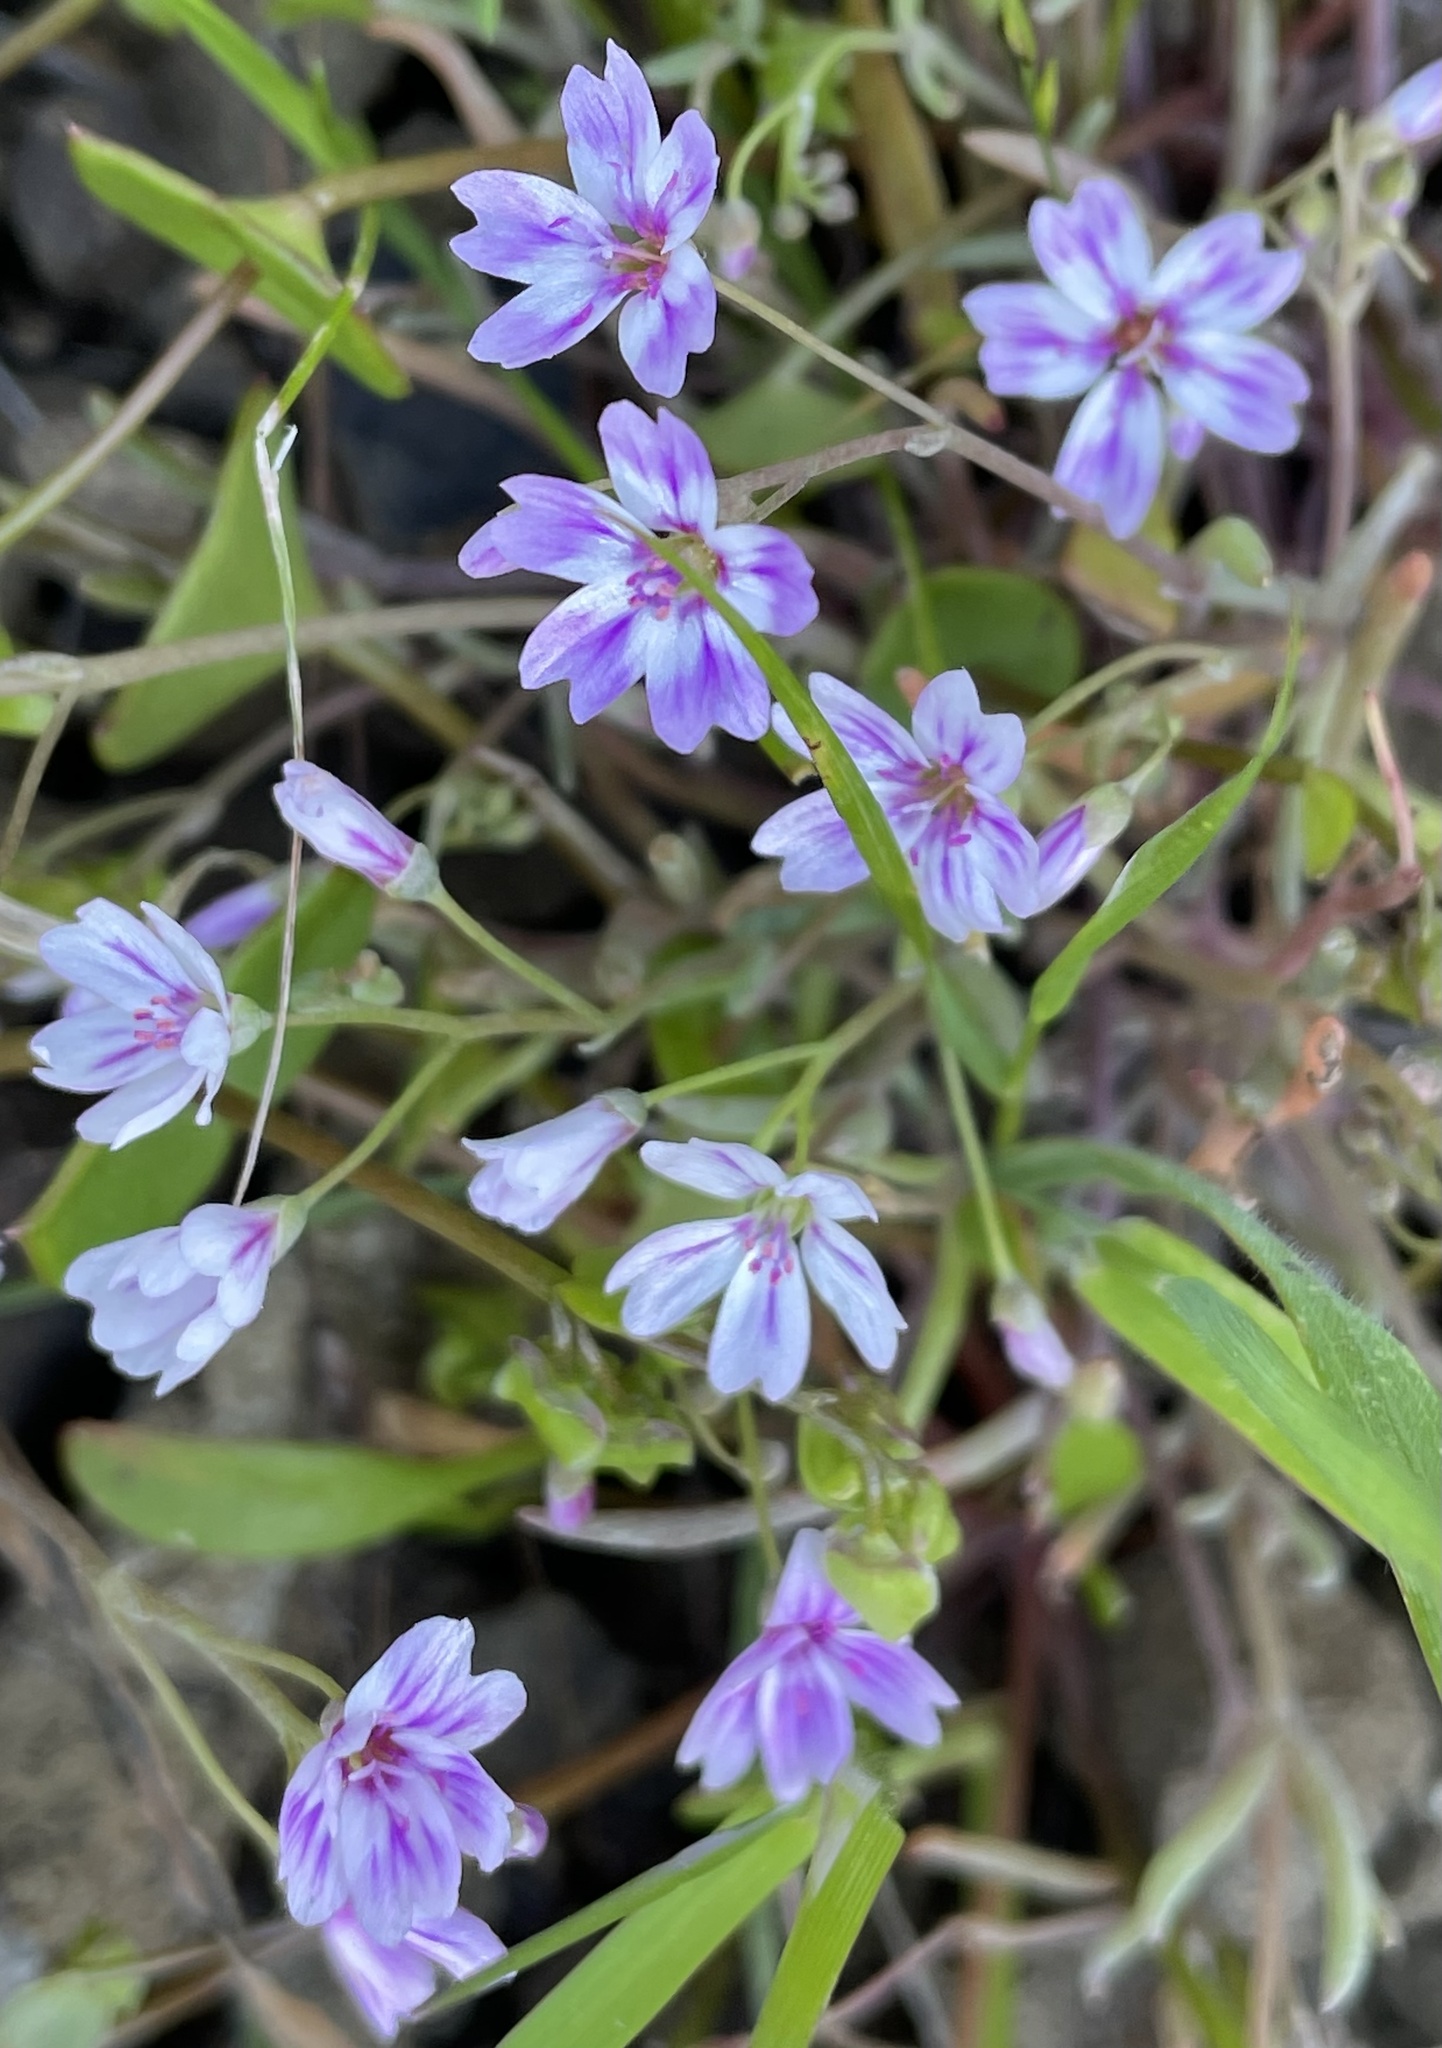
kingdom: Plantae
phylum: Tracheophyta
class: Magnoliopsida
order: Caryophyllales
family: Montiaceae
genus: Claytonia
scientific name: Claytonia gypsophiloides
